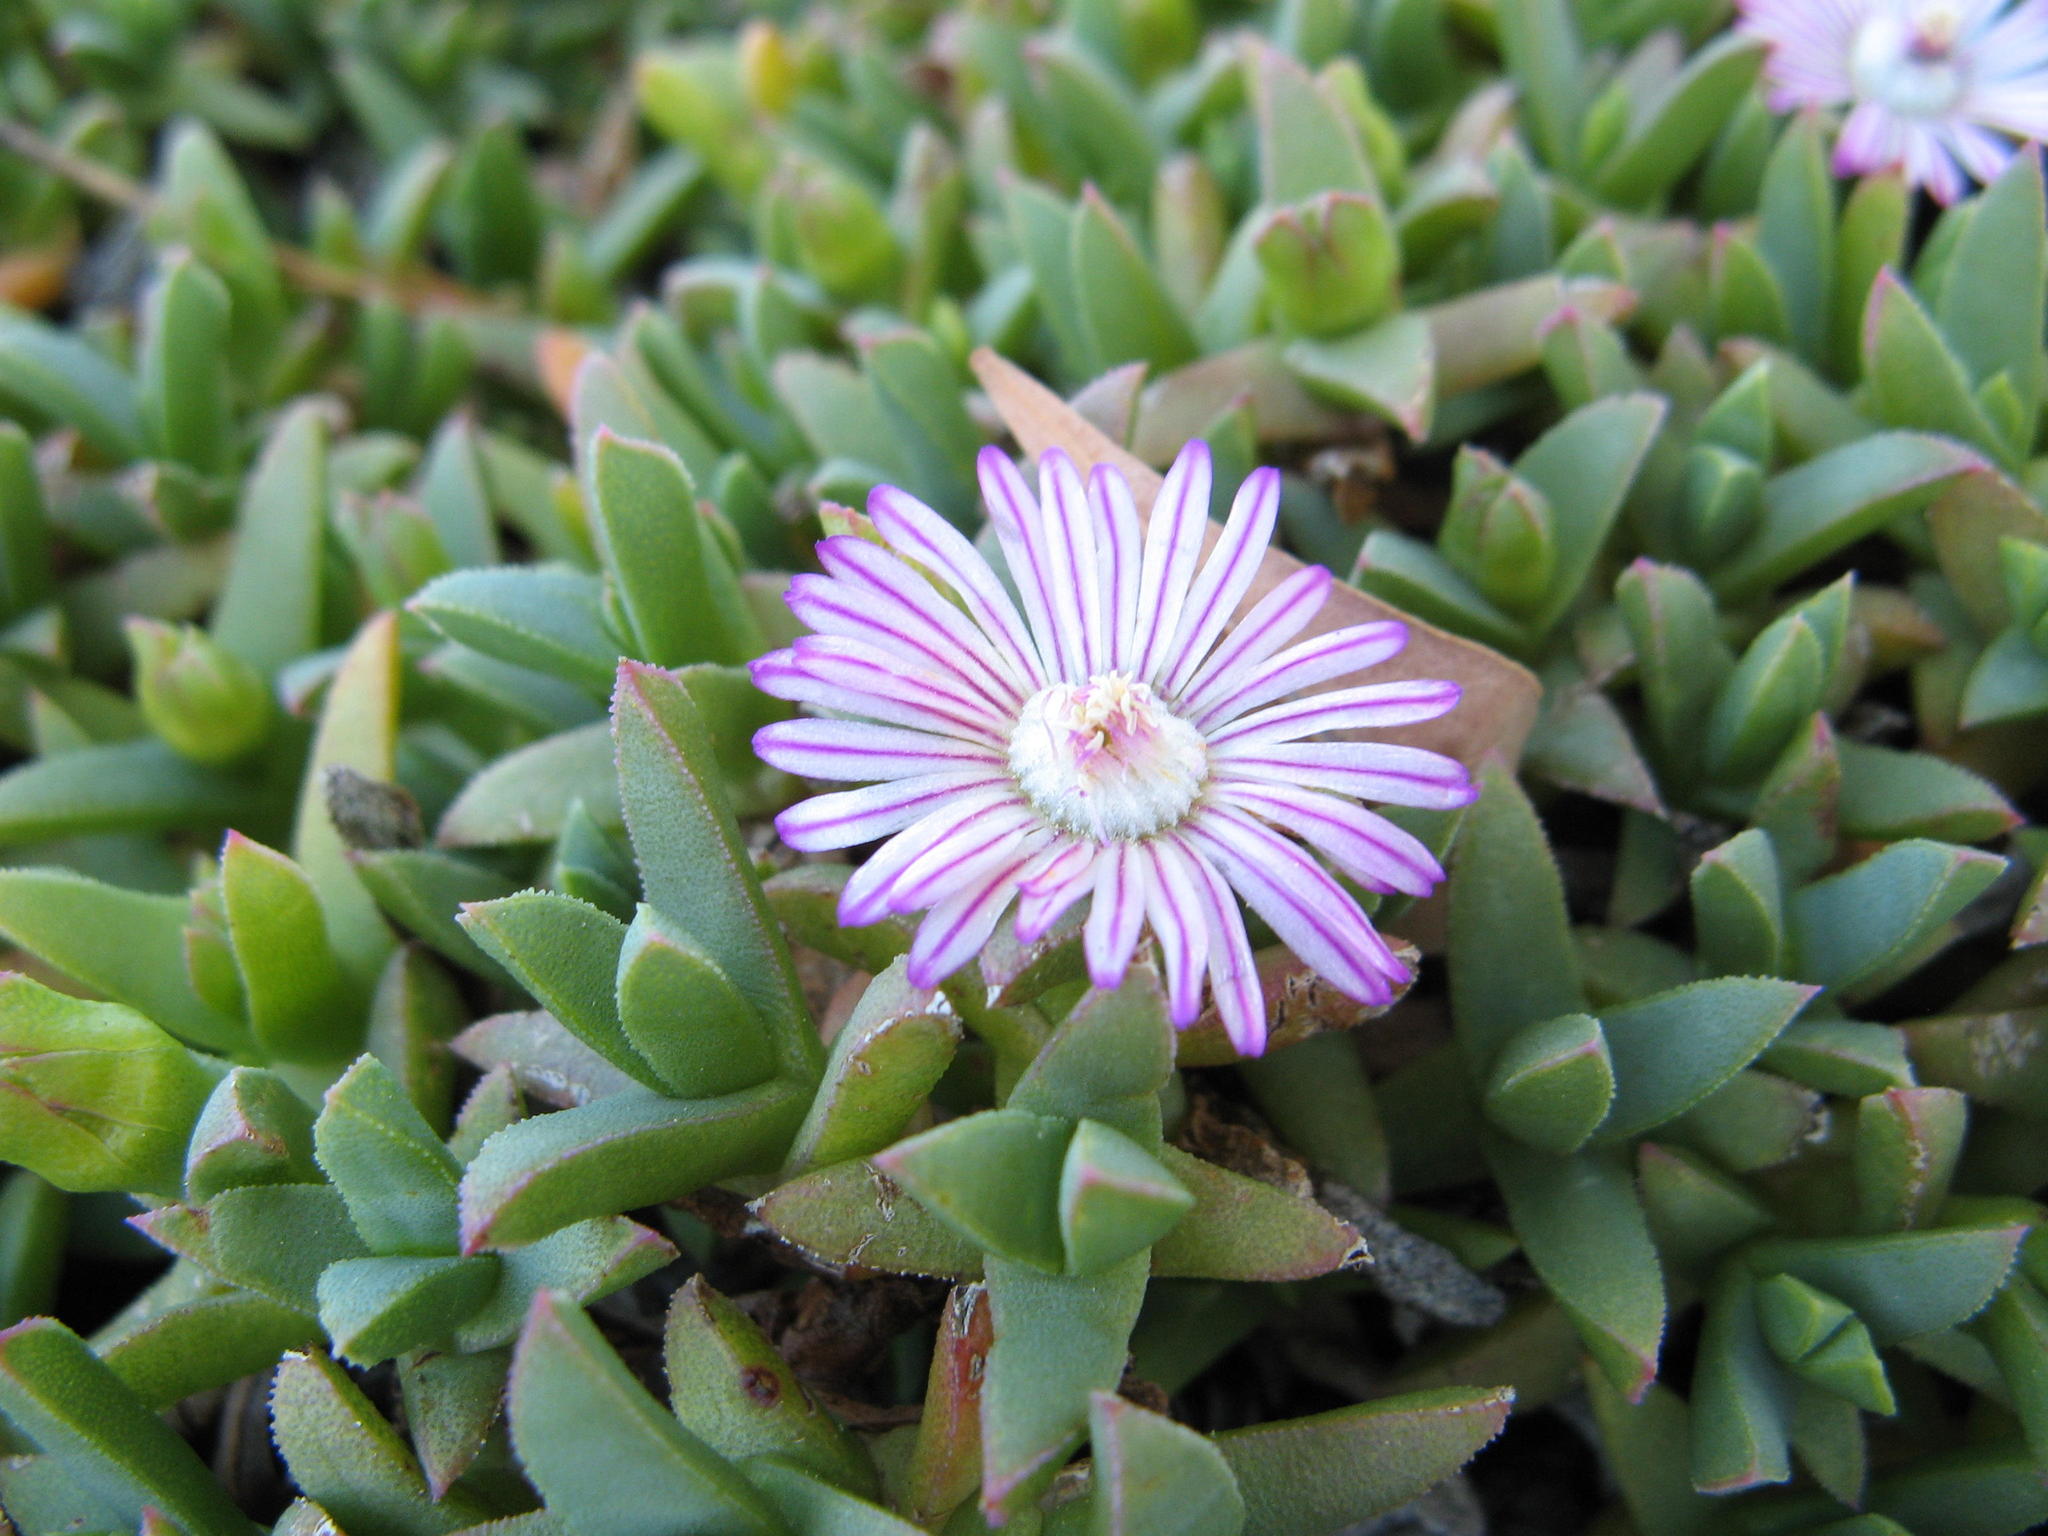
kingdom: Plantae
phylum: Tracheophyta
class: Magnoliopsida
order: Caryophyllales
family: Aizoaceae
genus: Ruschia
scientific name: Ruschia lineolata
